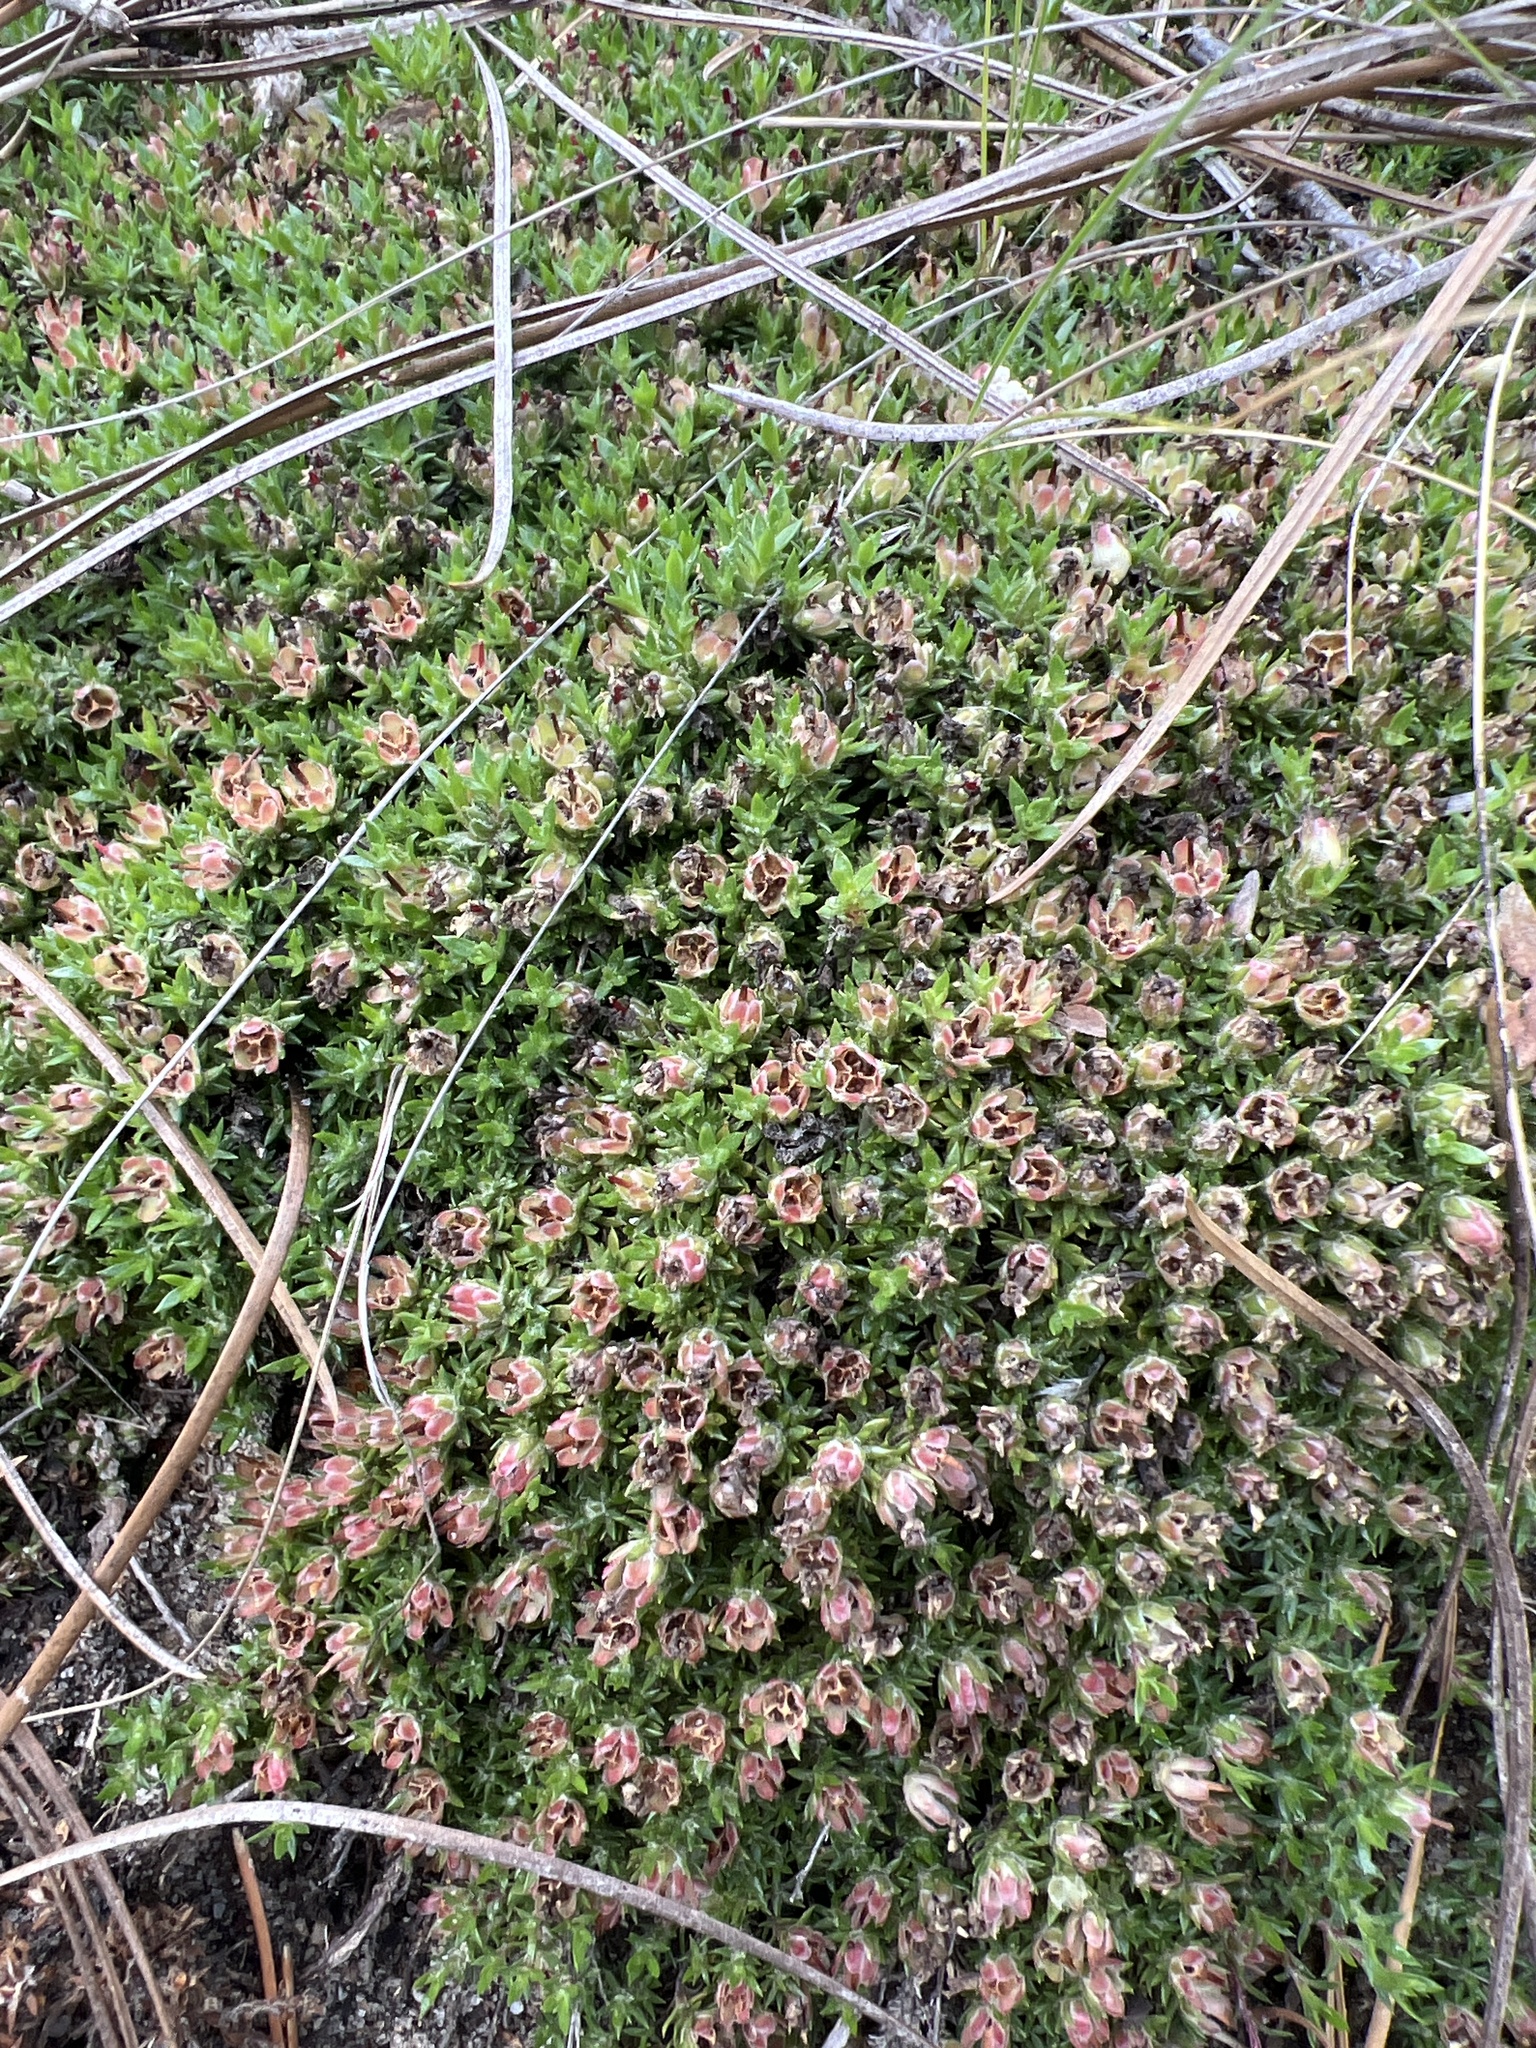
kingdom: Plantae
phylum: Tracheophyta
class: Magnoliopsida
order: Ericales
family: Diapensiaceae
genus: Pyxidanthera
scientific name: Pyxidanthera brevifolia
